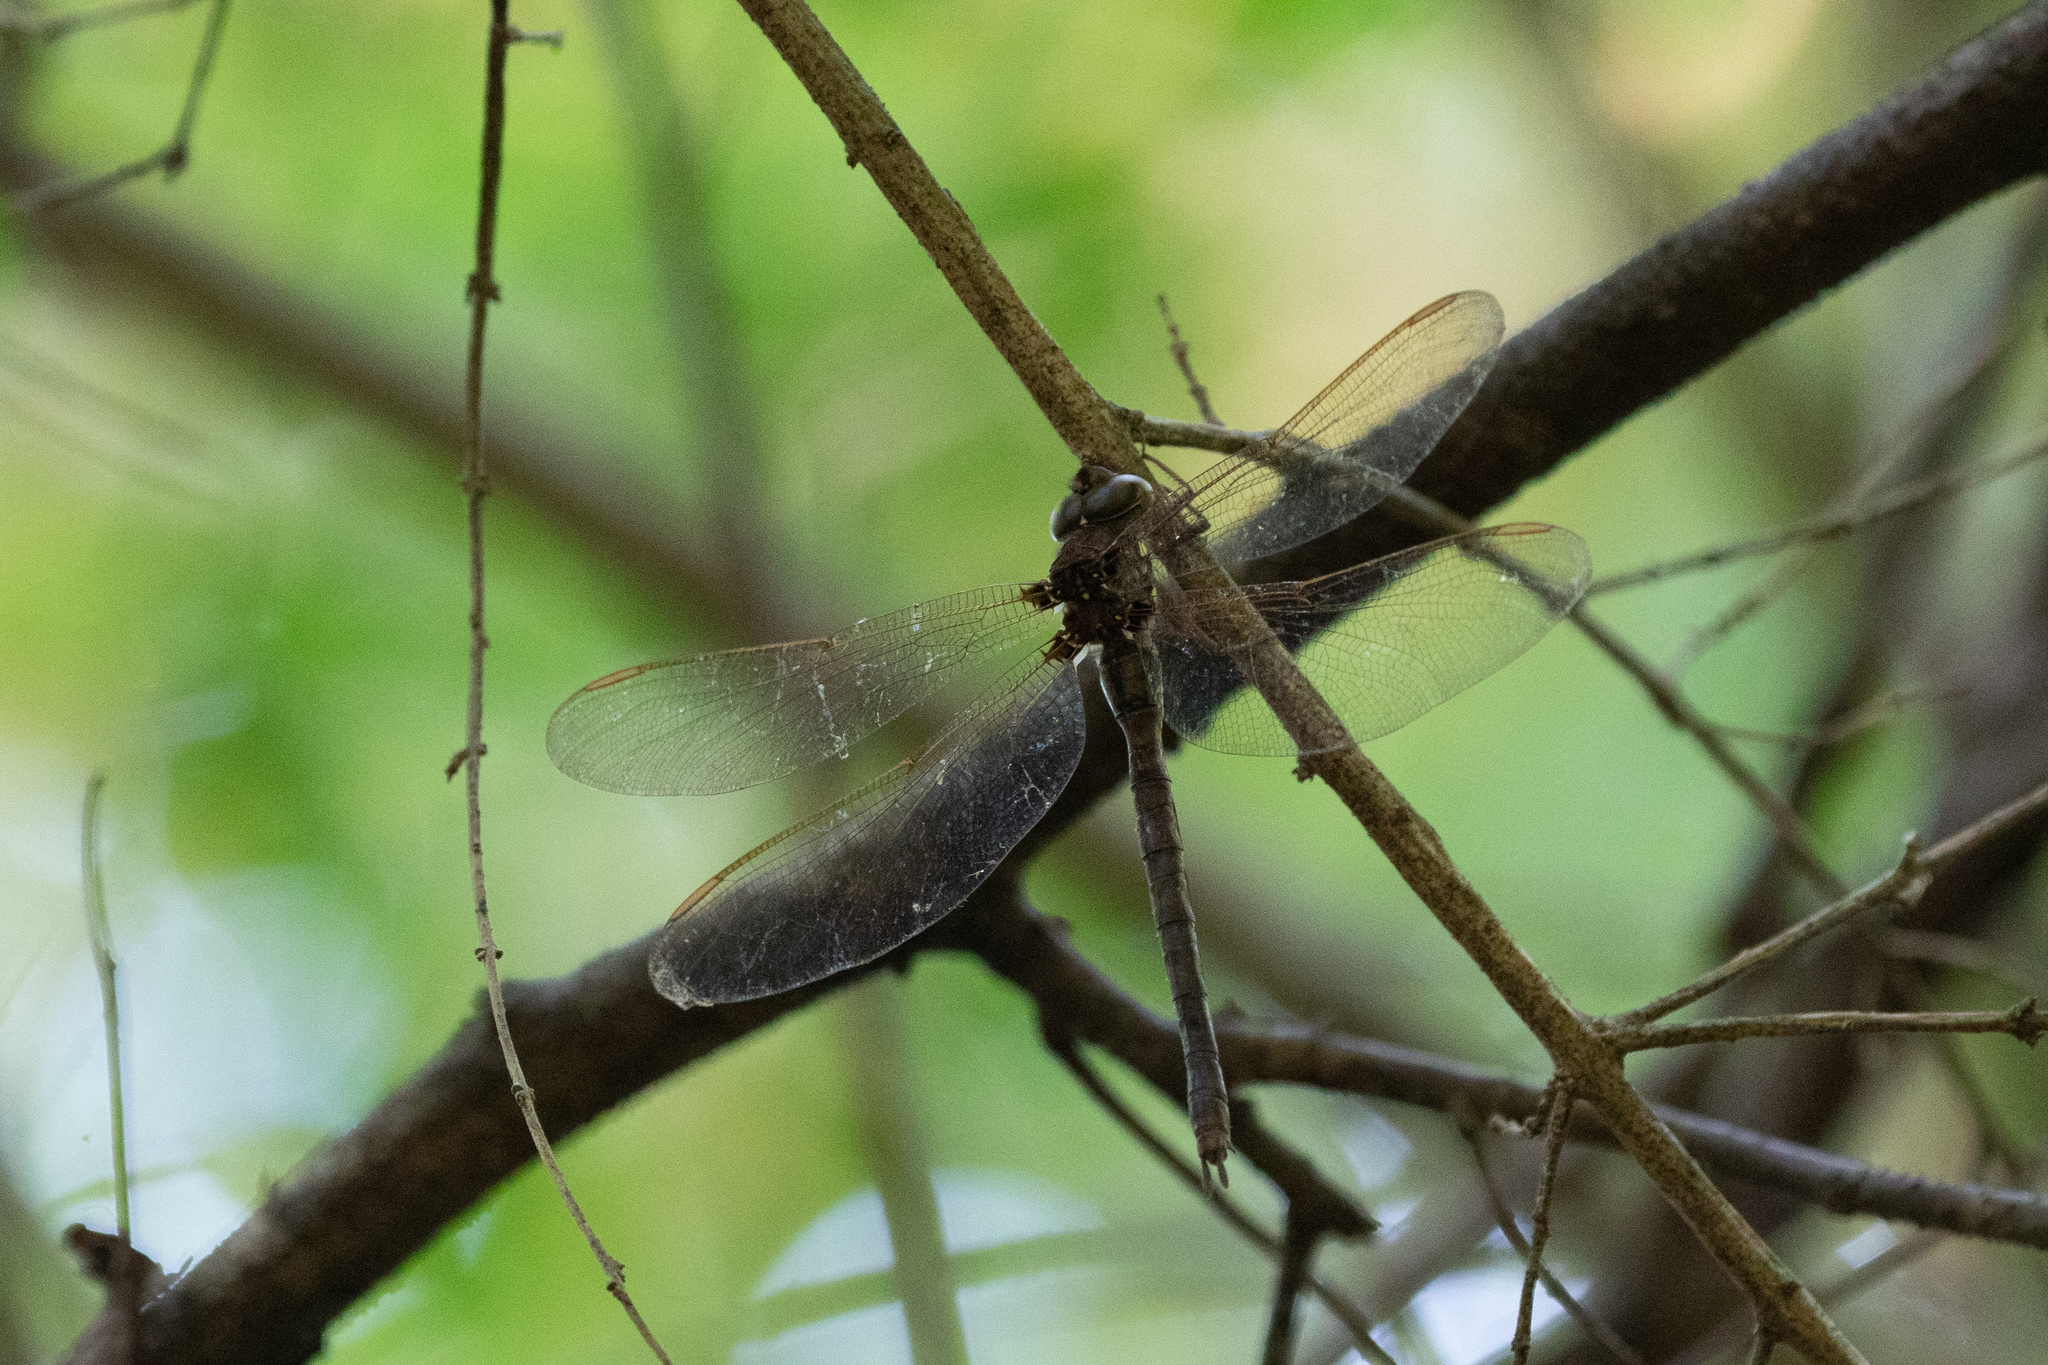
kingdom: Animalia
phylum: Arthropoda
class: Insecta
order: Odonata
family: Aeshnidae
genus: Boyeria
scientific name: Boyeria vinosa
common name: Fawn darner
